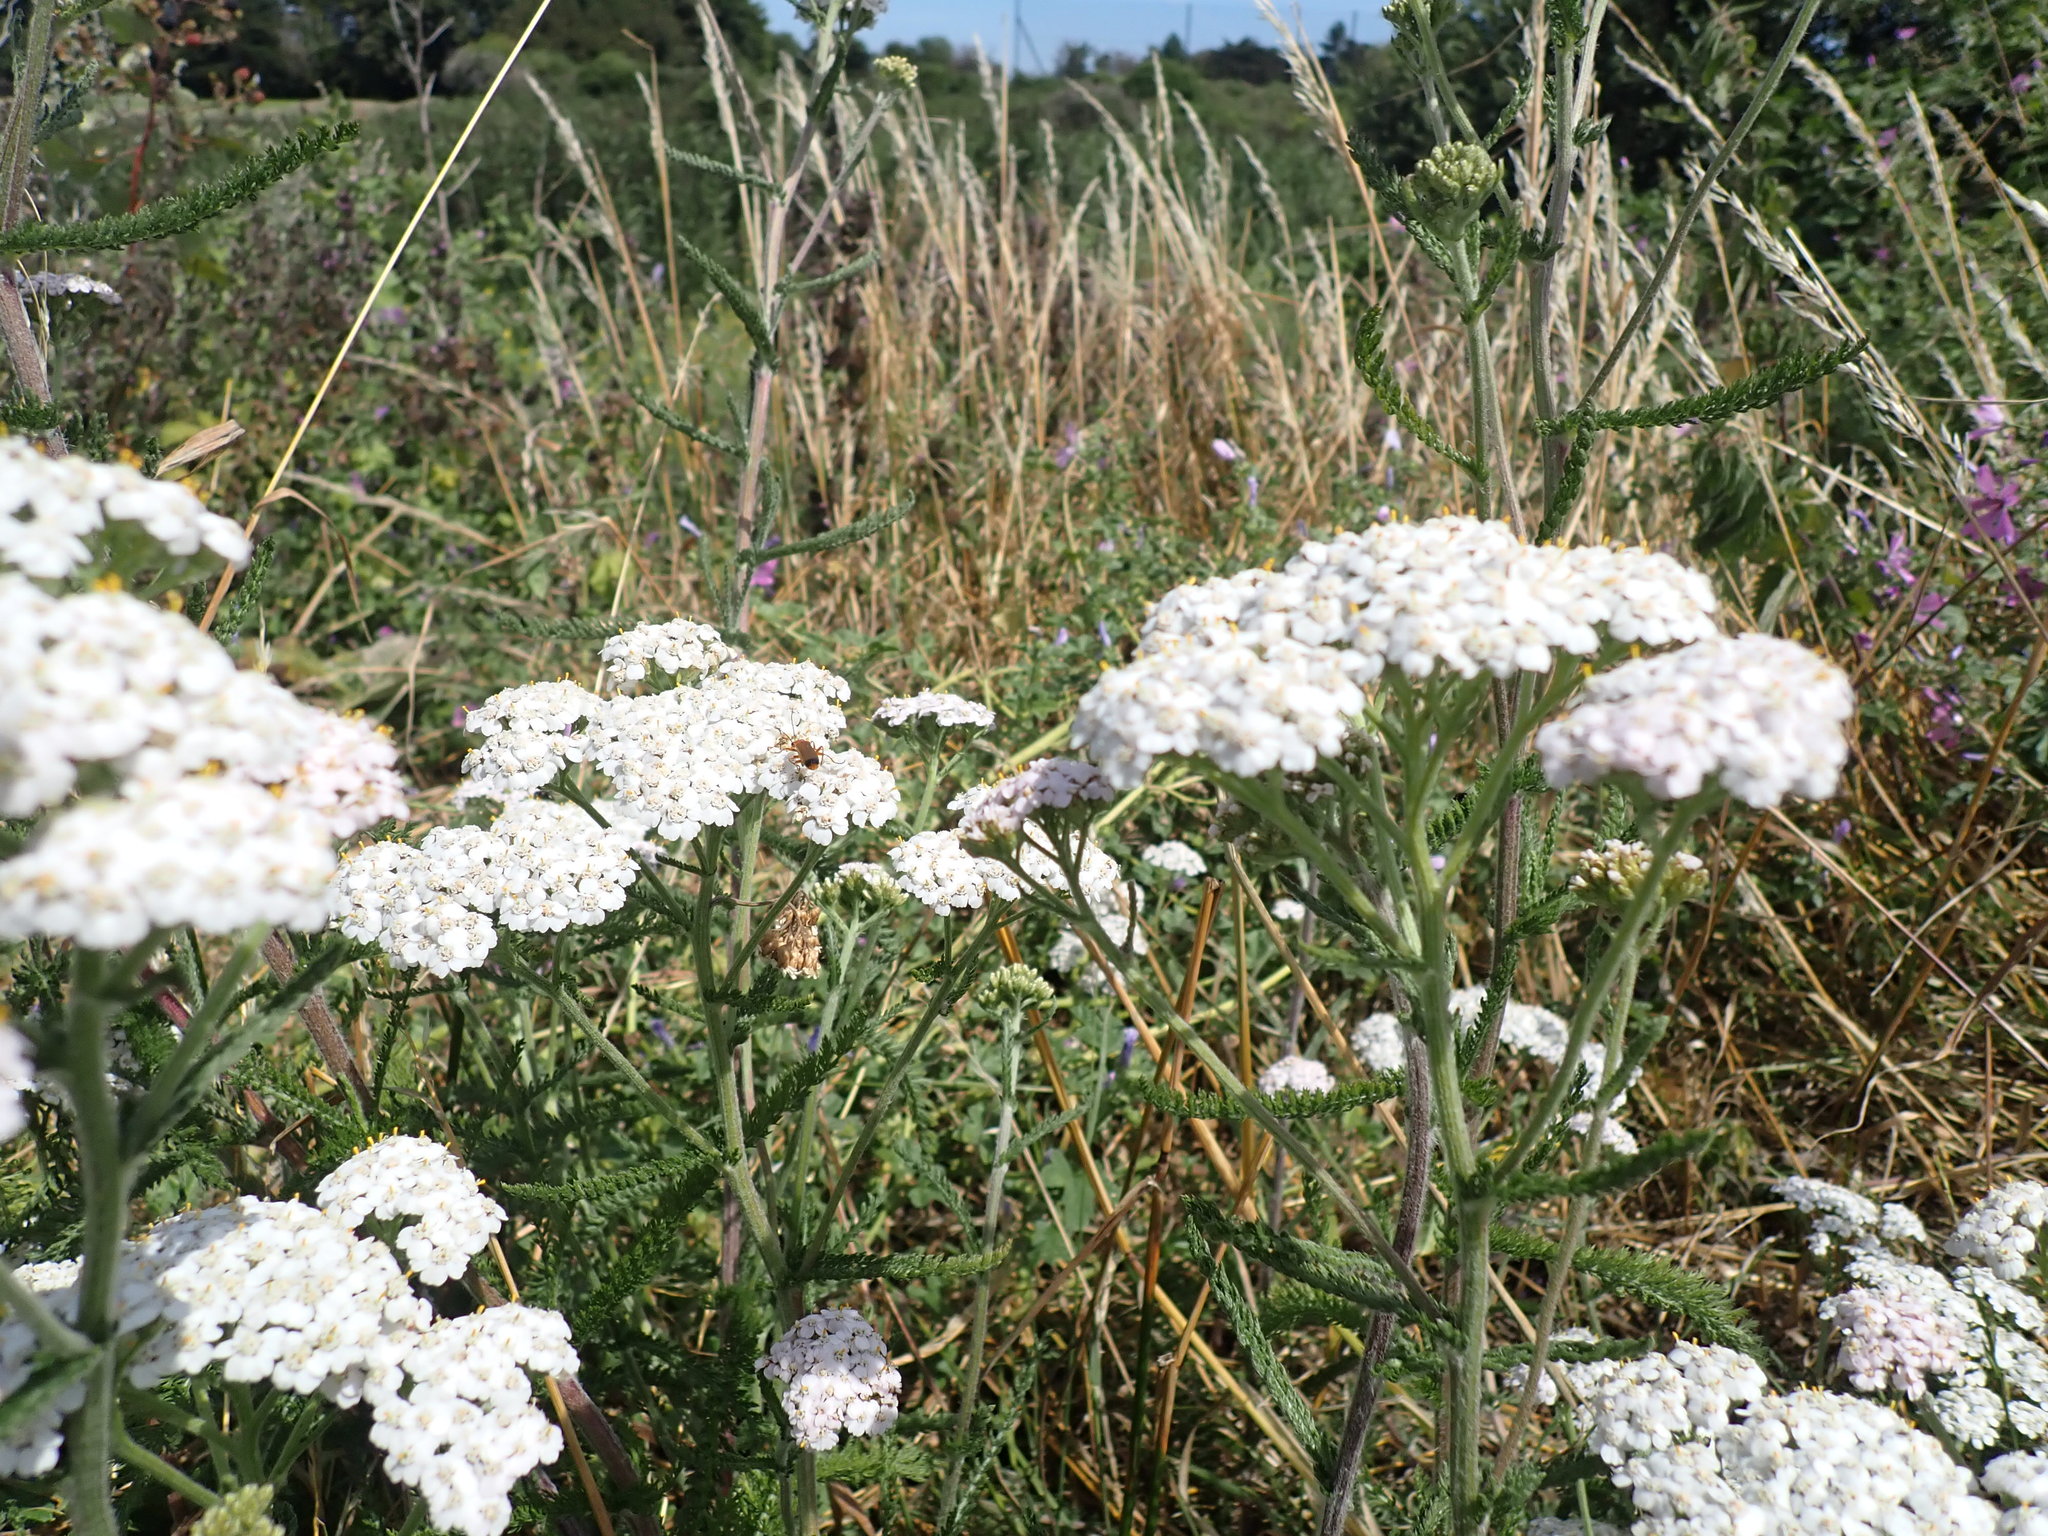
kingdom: Plantae
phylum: Tracheophyta
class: Magnoliopsida
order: Asterales
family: Asteraceae
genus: Achillea
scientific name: Achillea millefolium
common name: Yarrow
